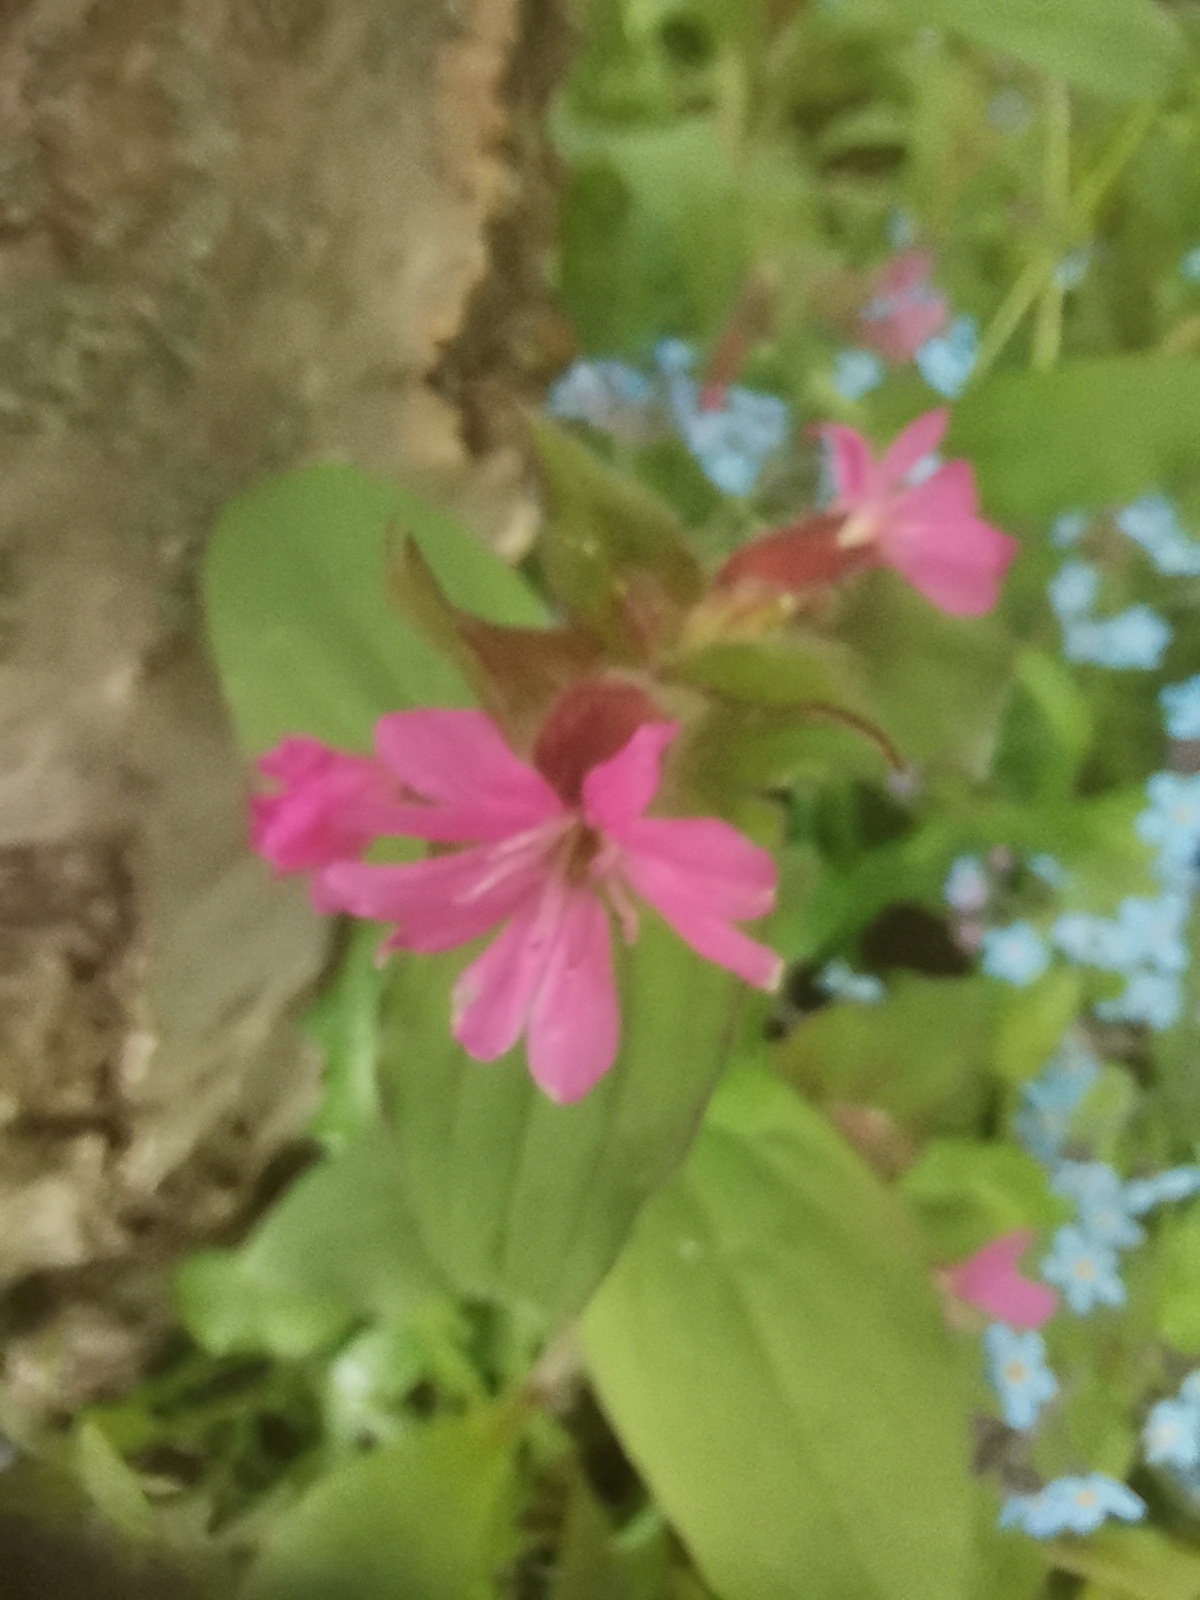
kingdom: Plantae
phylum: Tracheophyta
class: Magnoliopsida
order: Caryophyllales
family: Caryophyllaceae
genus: Silene
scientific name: Silene dioica
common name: Red campion
